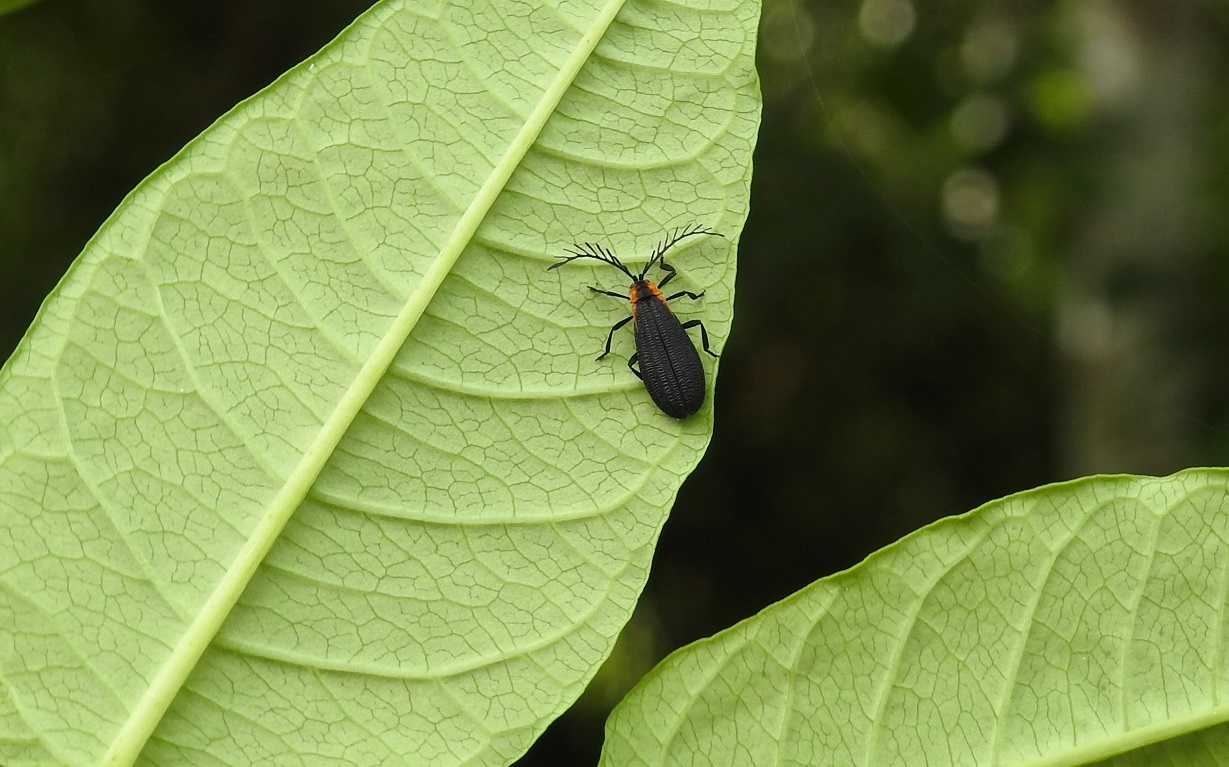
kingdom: Animalia
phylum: Arthropoda
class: Insecta
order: Coleoptera
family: Lycidae
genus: Leptoceletes
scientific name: Leptoceletes basalis
